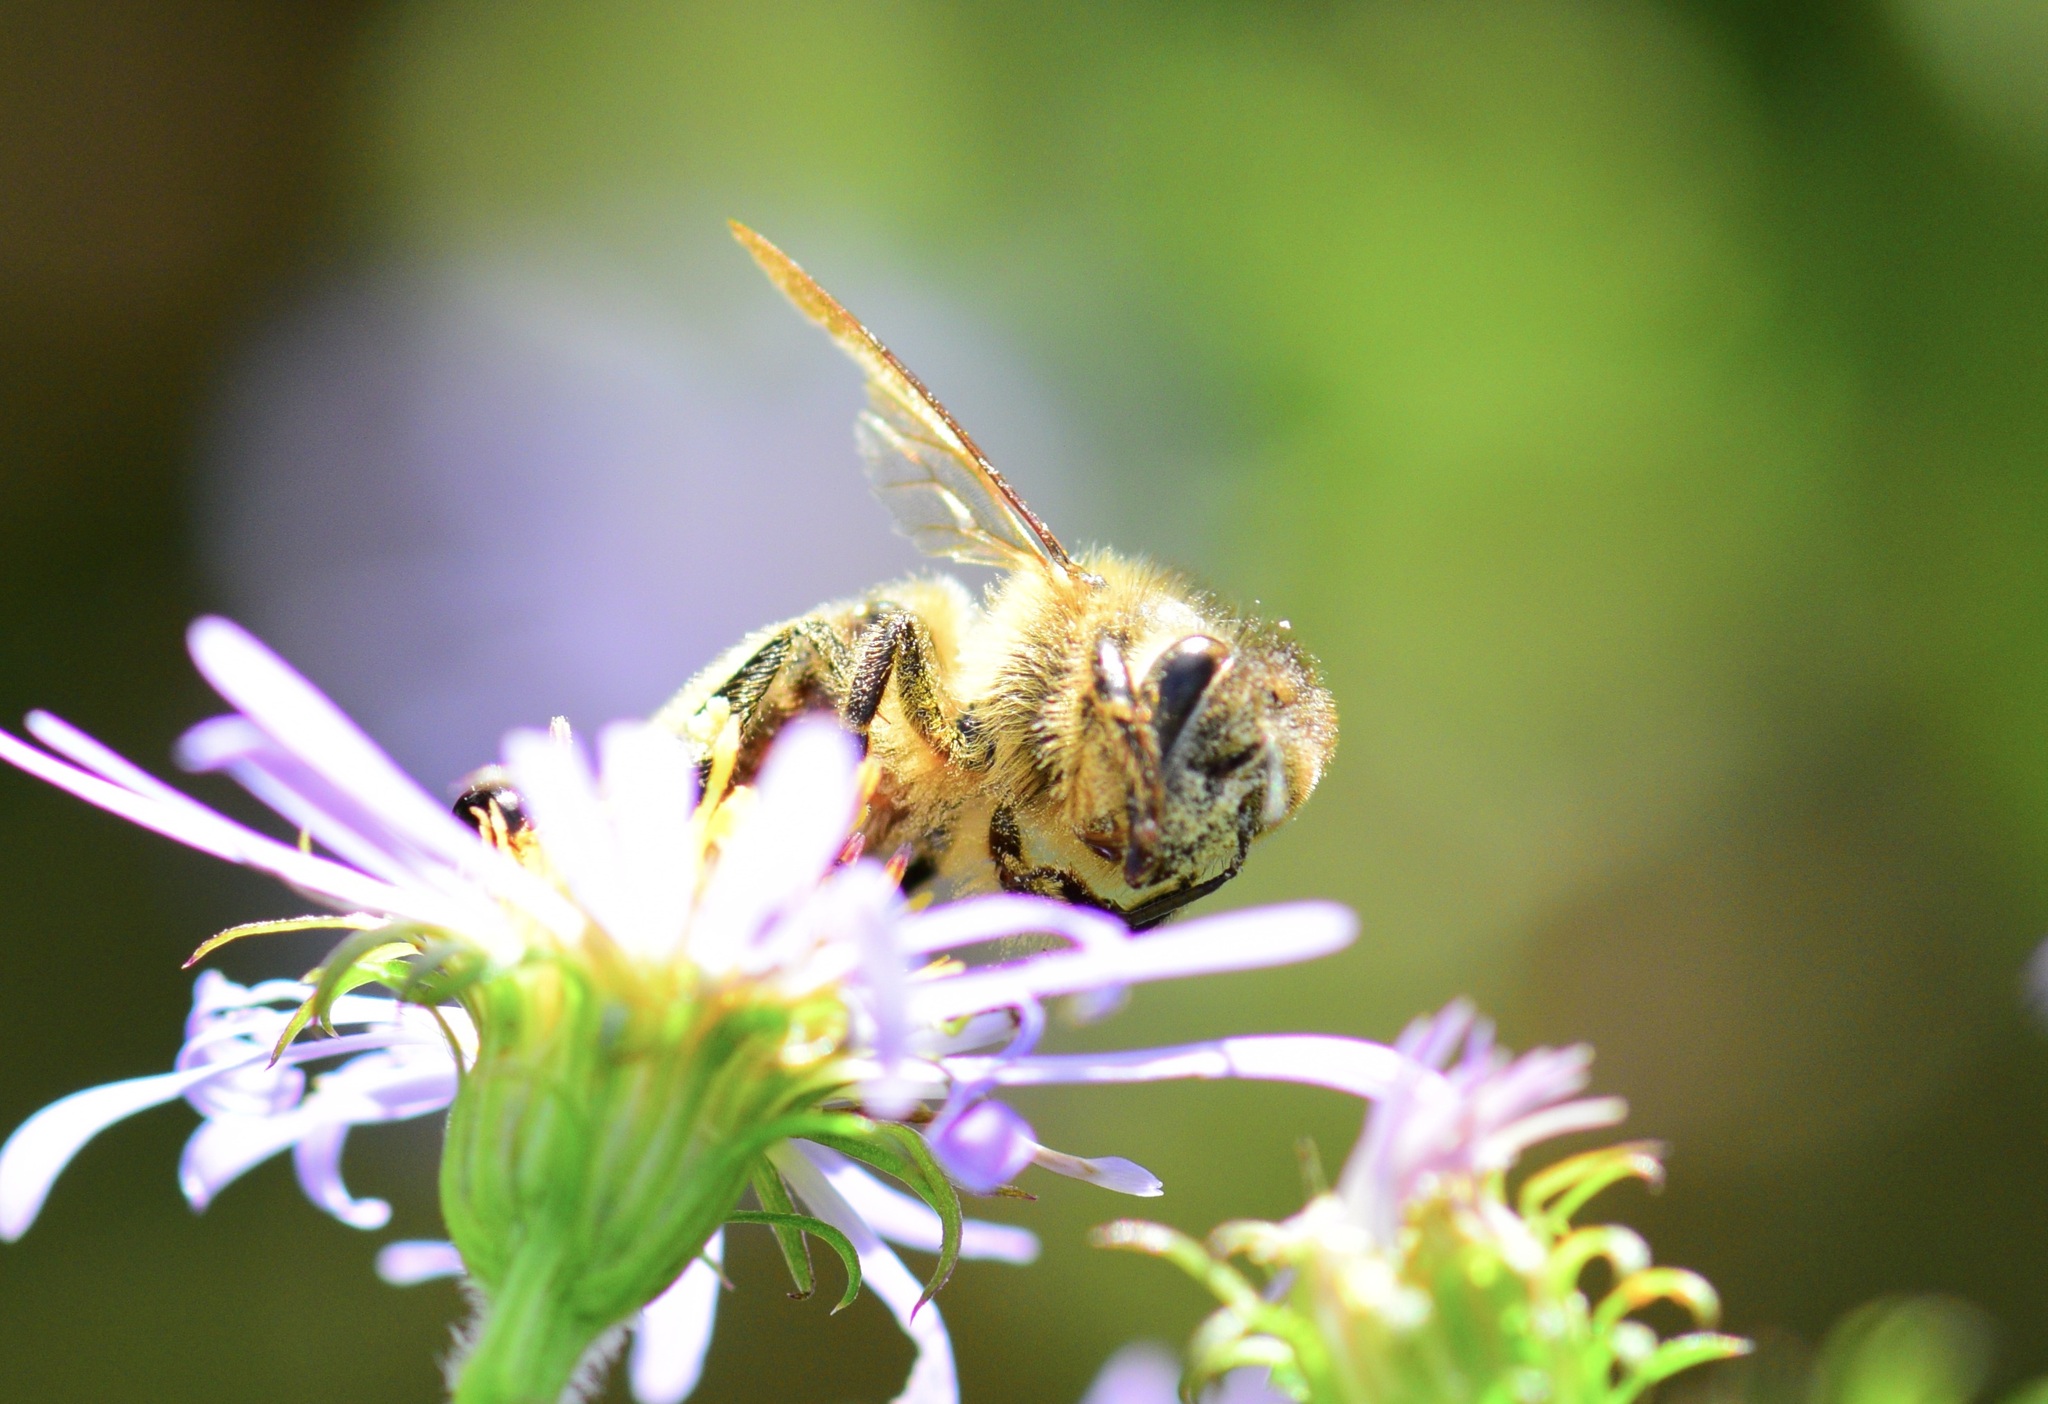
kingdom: Animalia
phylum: Arthropoda
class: Insecta
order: Hymenoptera
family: Apidae
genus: Apis
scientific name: Apis mellifera
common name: Honey bee
